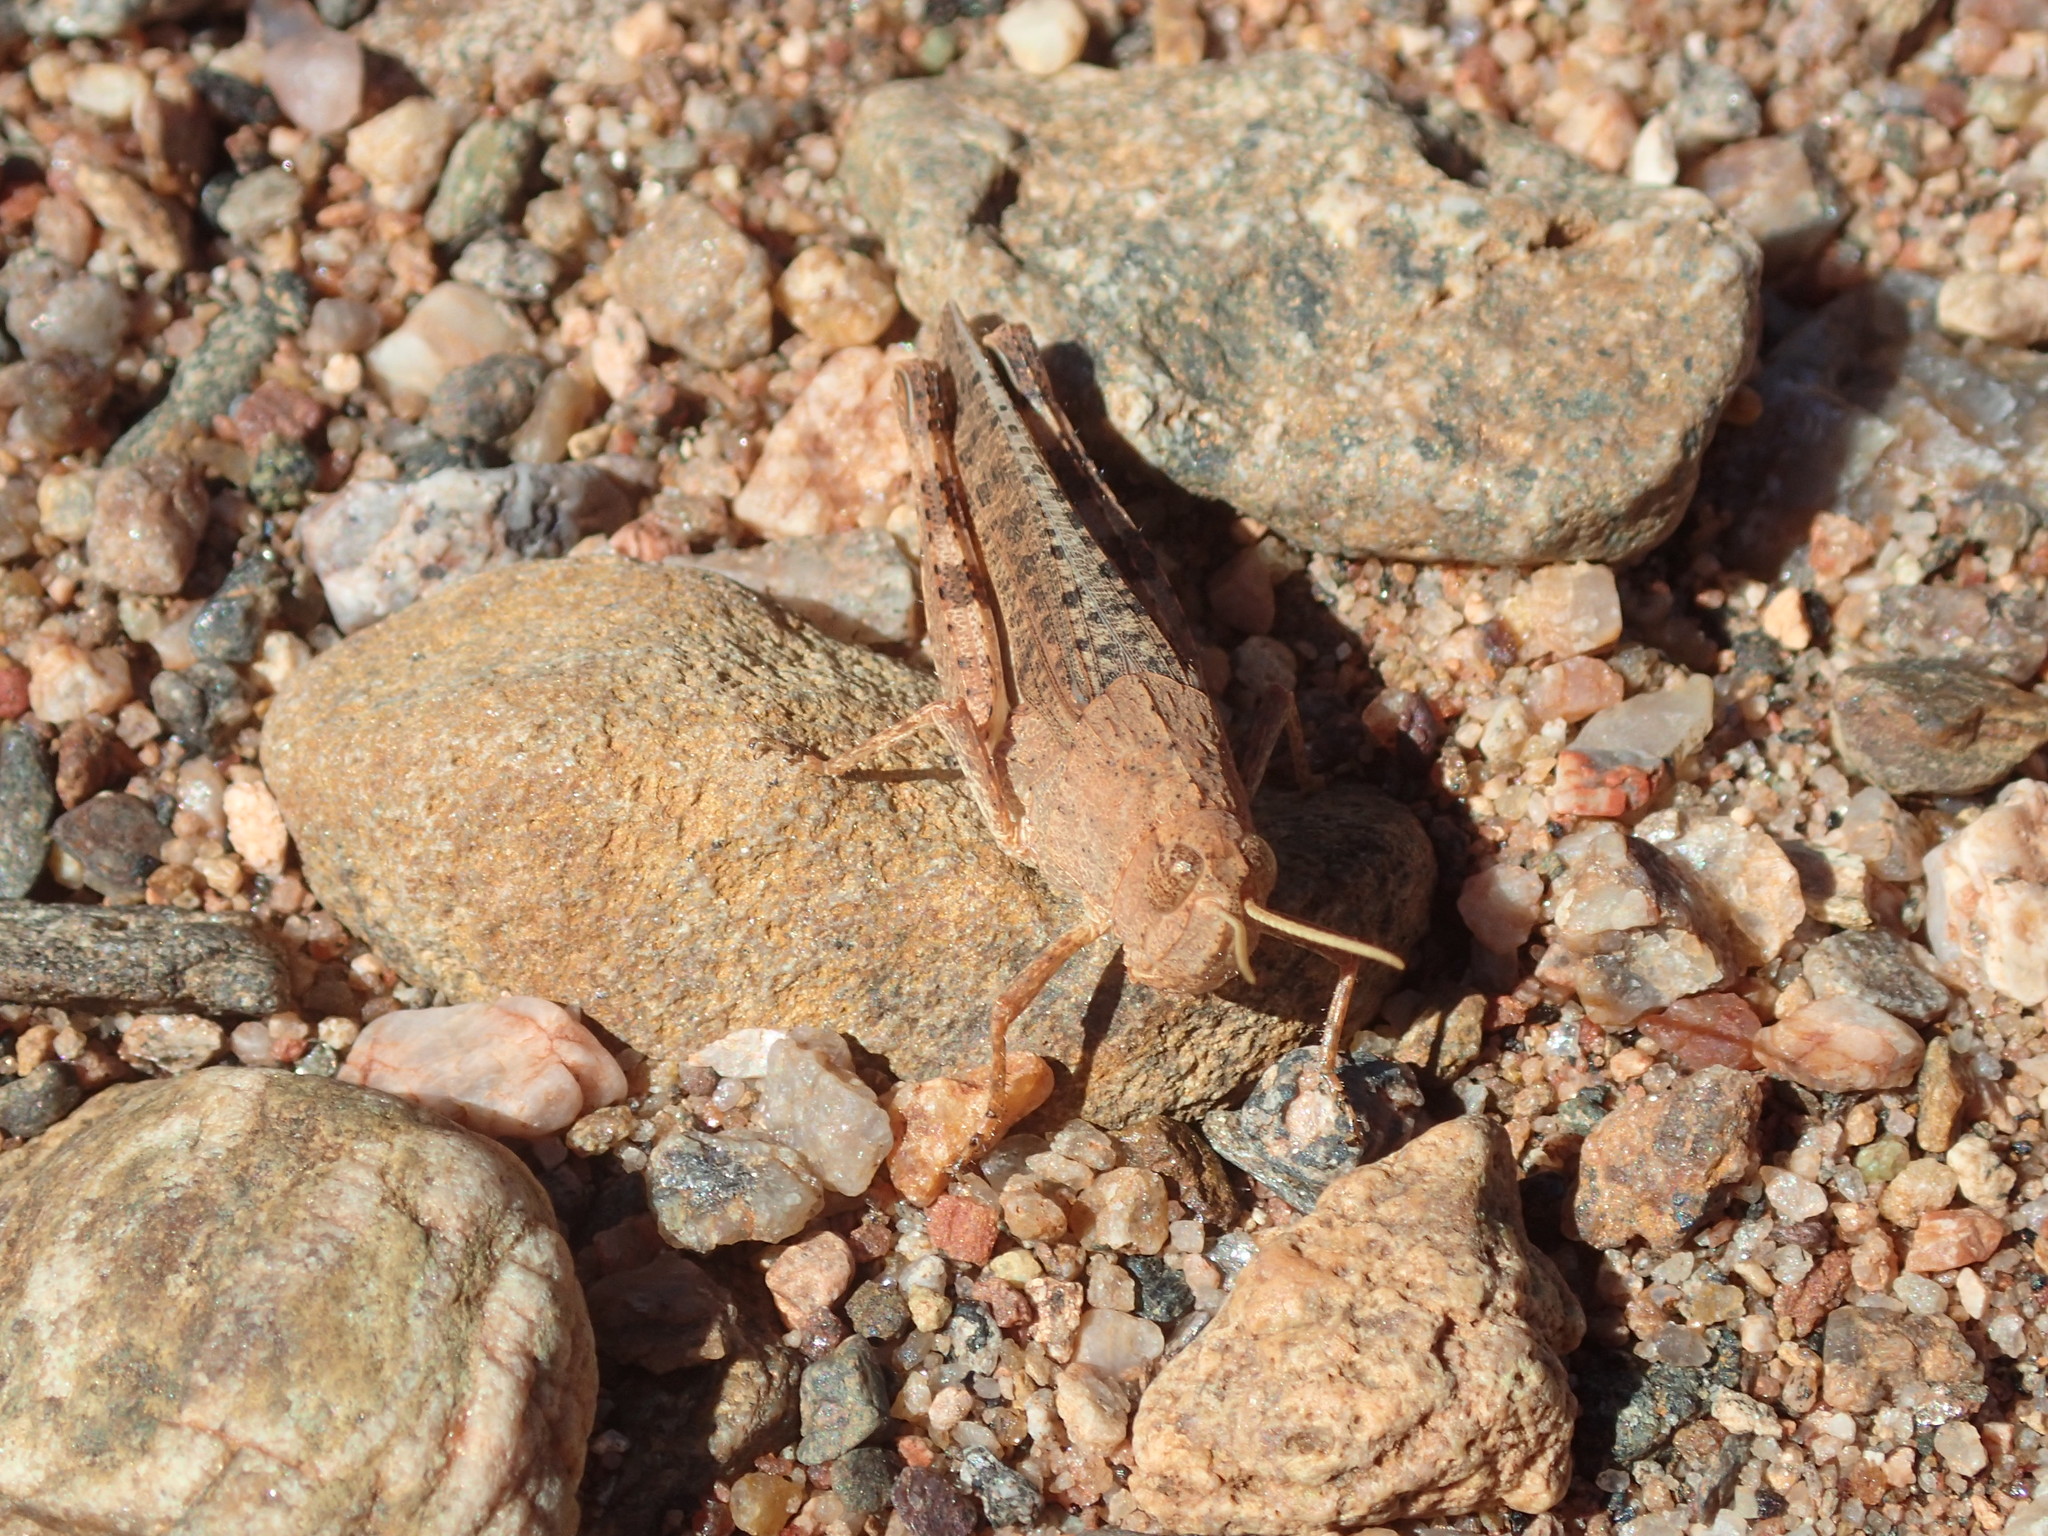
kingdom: Animalia
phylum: Arthropoda
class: Insecta
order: Orthoptera
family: Acrididae
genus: Desertaria
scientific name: Desertaria fasciata
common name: Striped ungee-gungee
